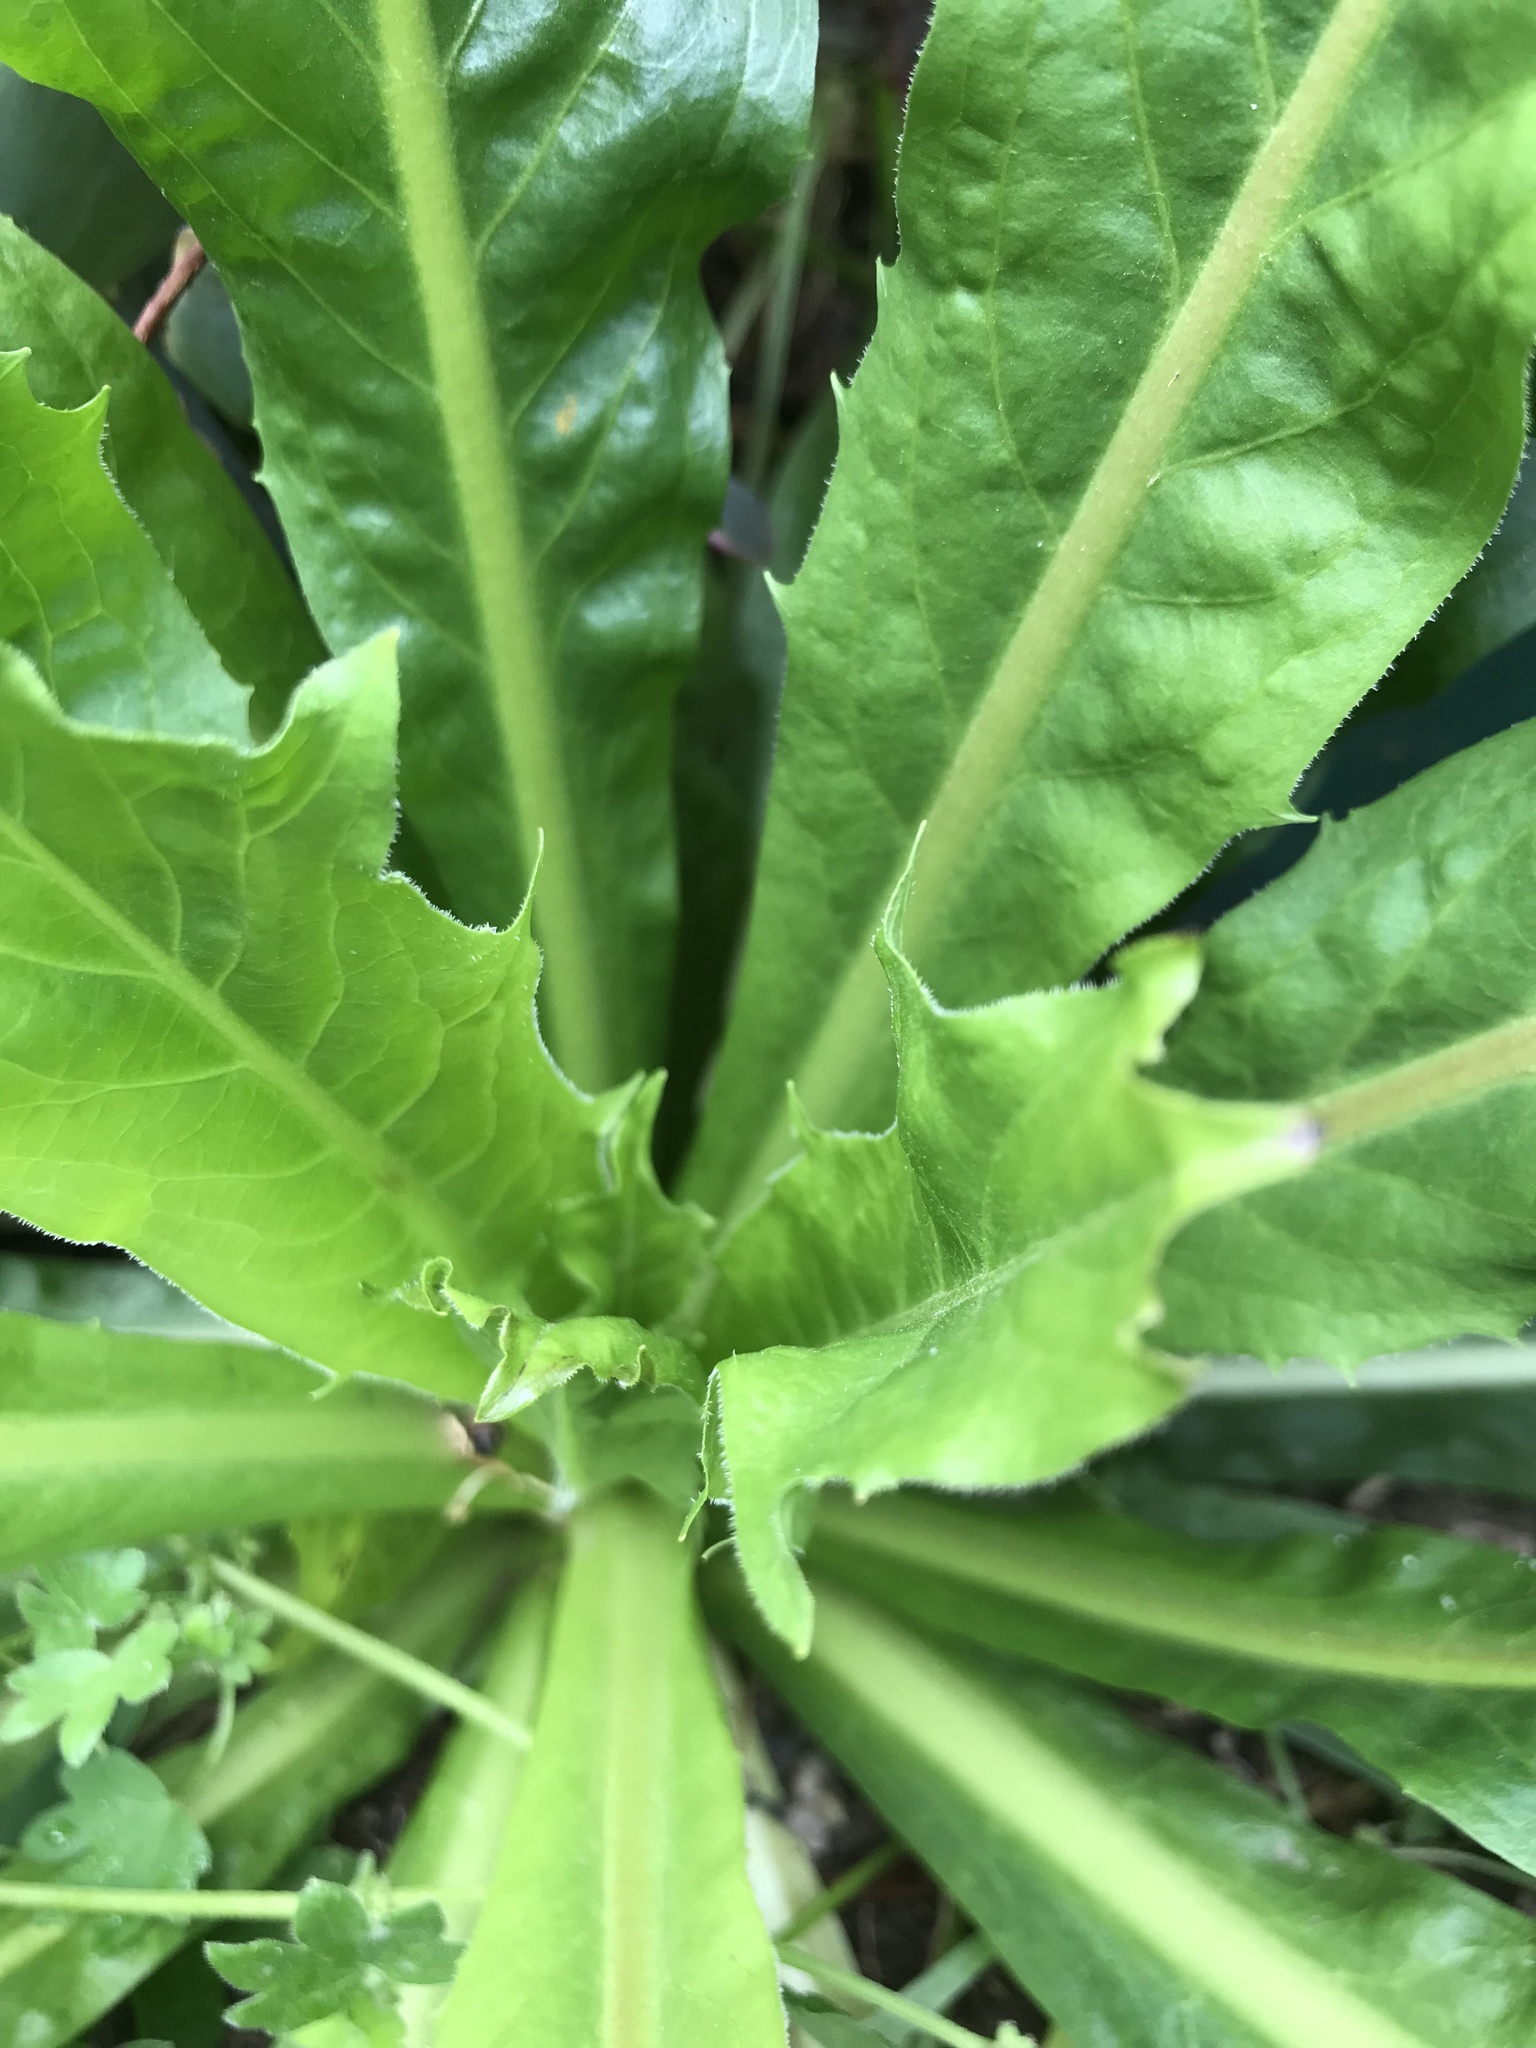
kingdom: Plantae
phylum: Tracheophyta
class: Magnoliopsida
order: Asterales
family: Asteraceae
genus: Hypochaeris
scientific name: Hypochaeris chillensis
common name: Brazilian cat's ear
